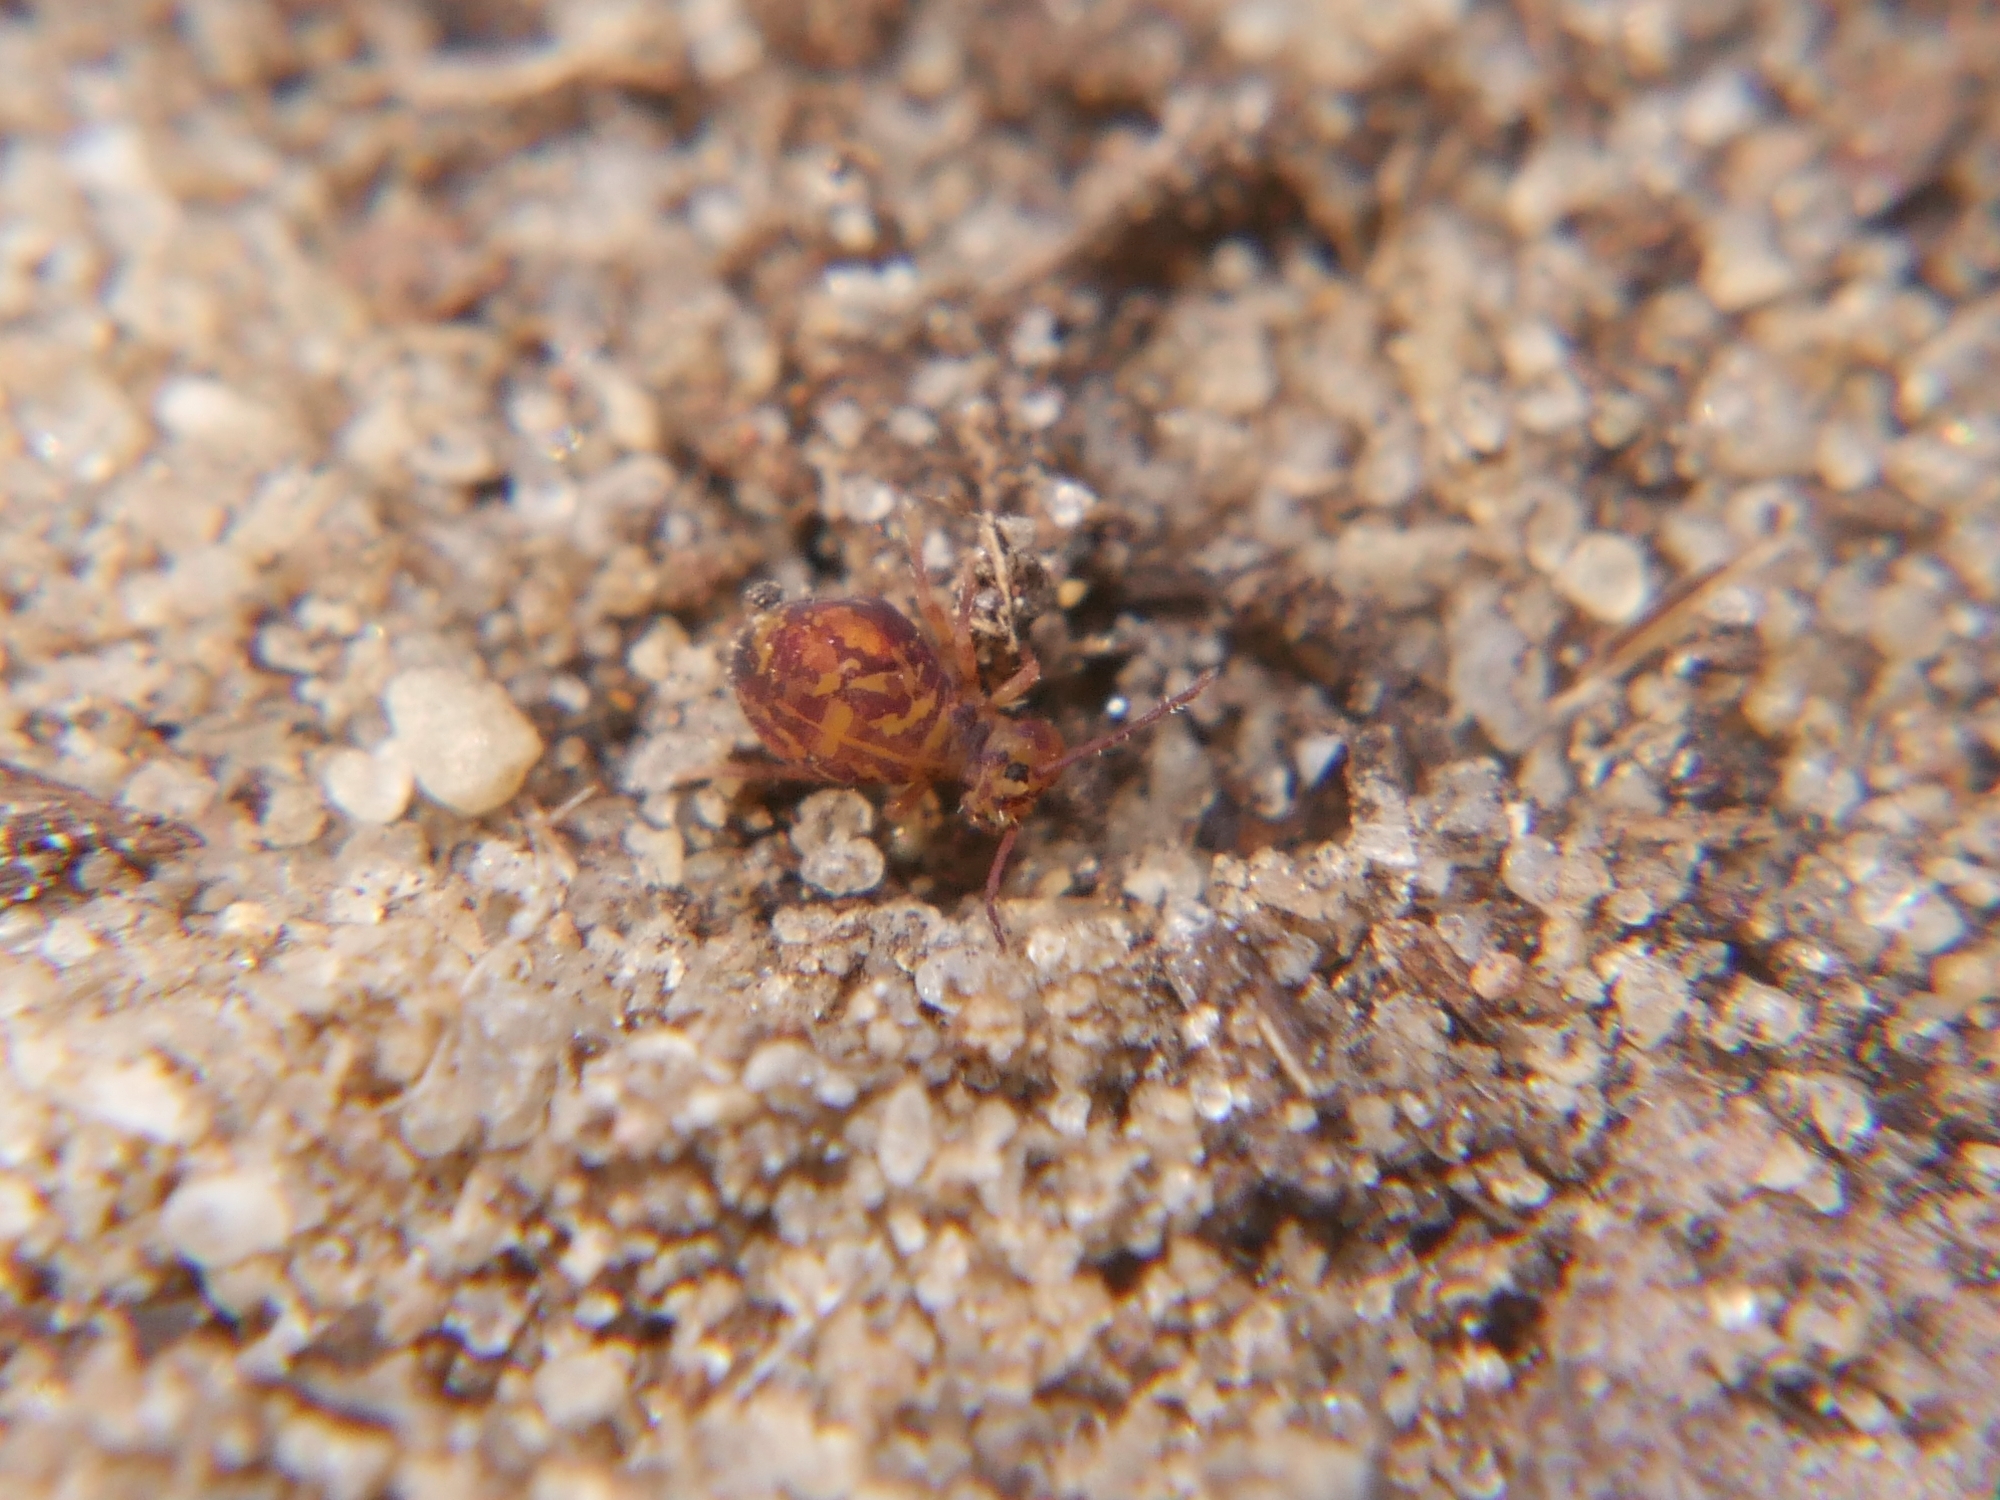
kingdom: Animalia
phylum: Arthropoda
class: Collembola
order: Symphypleona
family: Dicyrtomidae
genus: Dicyrtomina
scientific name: Dicyrtomina ornata
